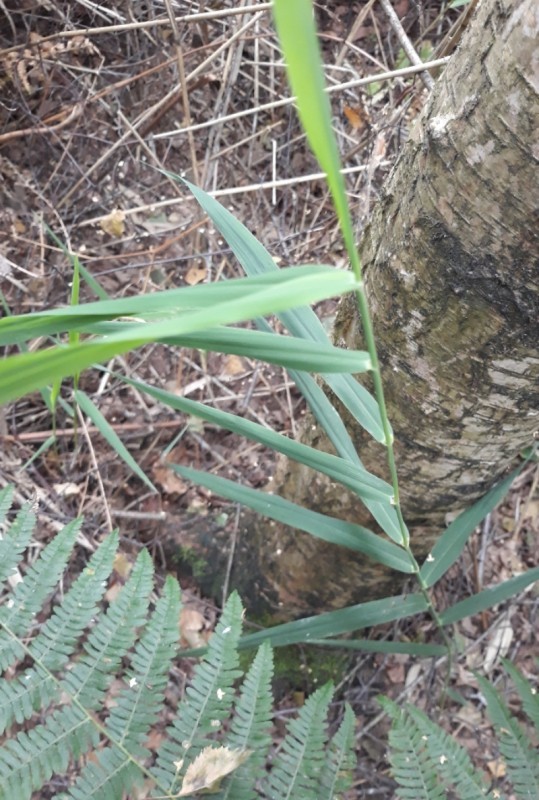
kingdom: Plantae
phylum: Tracheophyta
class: Liliopsida
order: Poales
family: Poaceae
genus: Phragmites
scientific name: Phragmites australis
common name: Common reed
